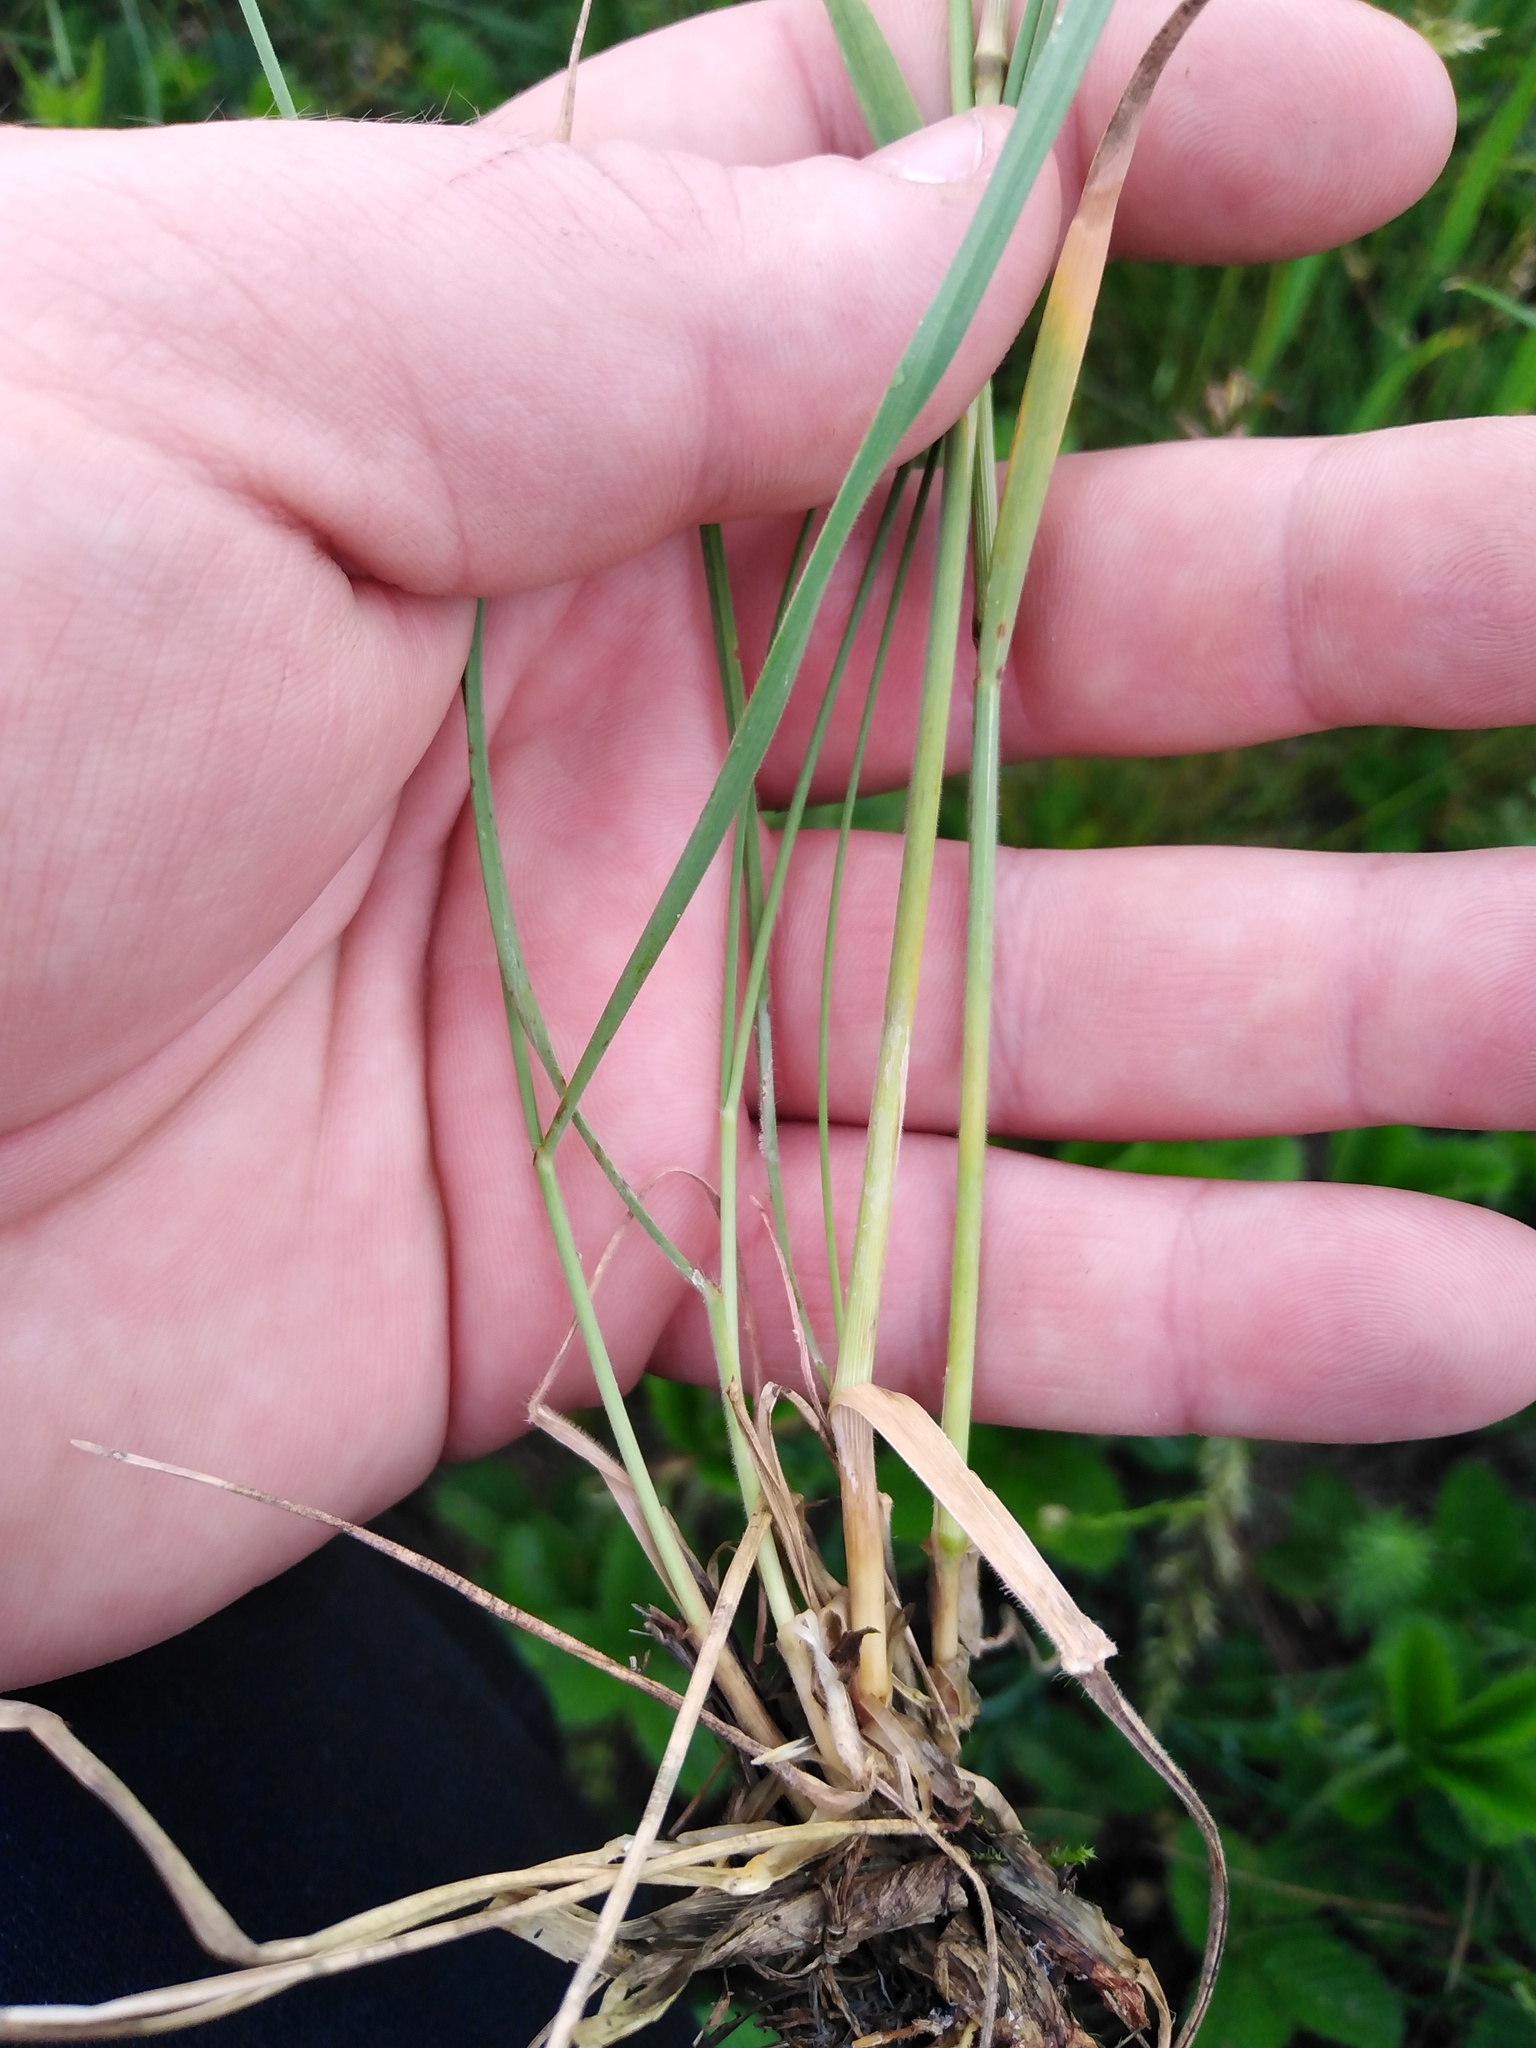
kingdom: Plantae
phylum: Tracheophyta
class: Liliopsida
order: Poales
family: Poaceae
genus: Koeleria
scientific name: Koeleria pyramidata
